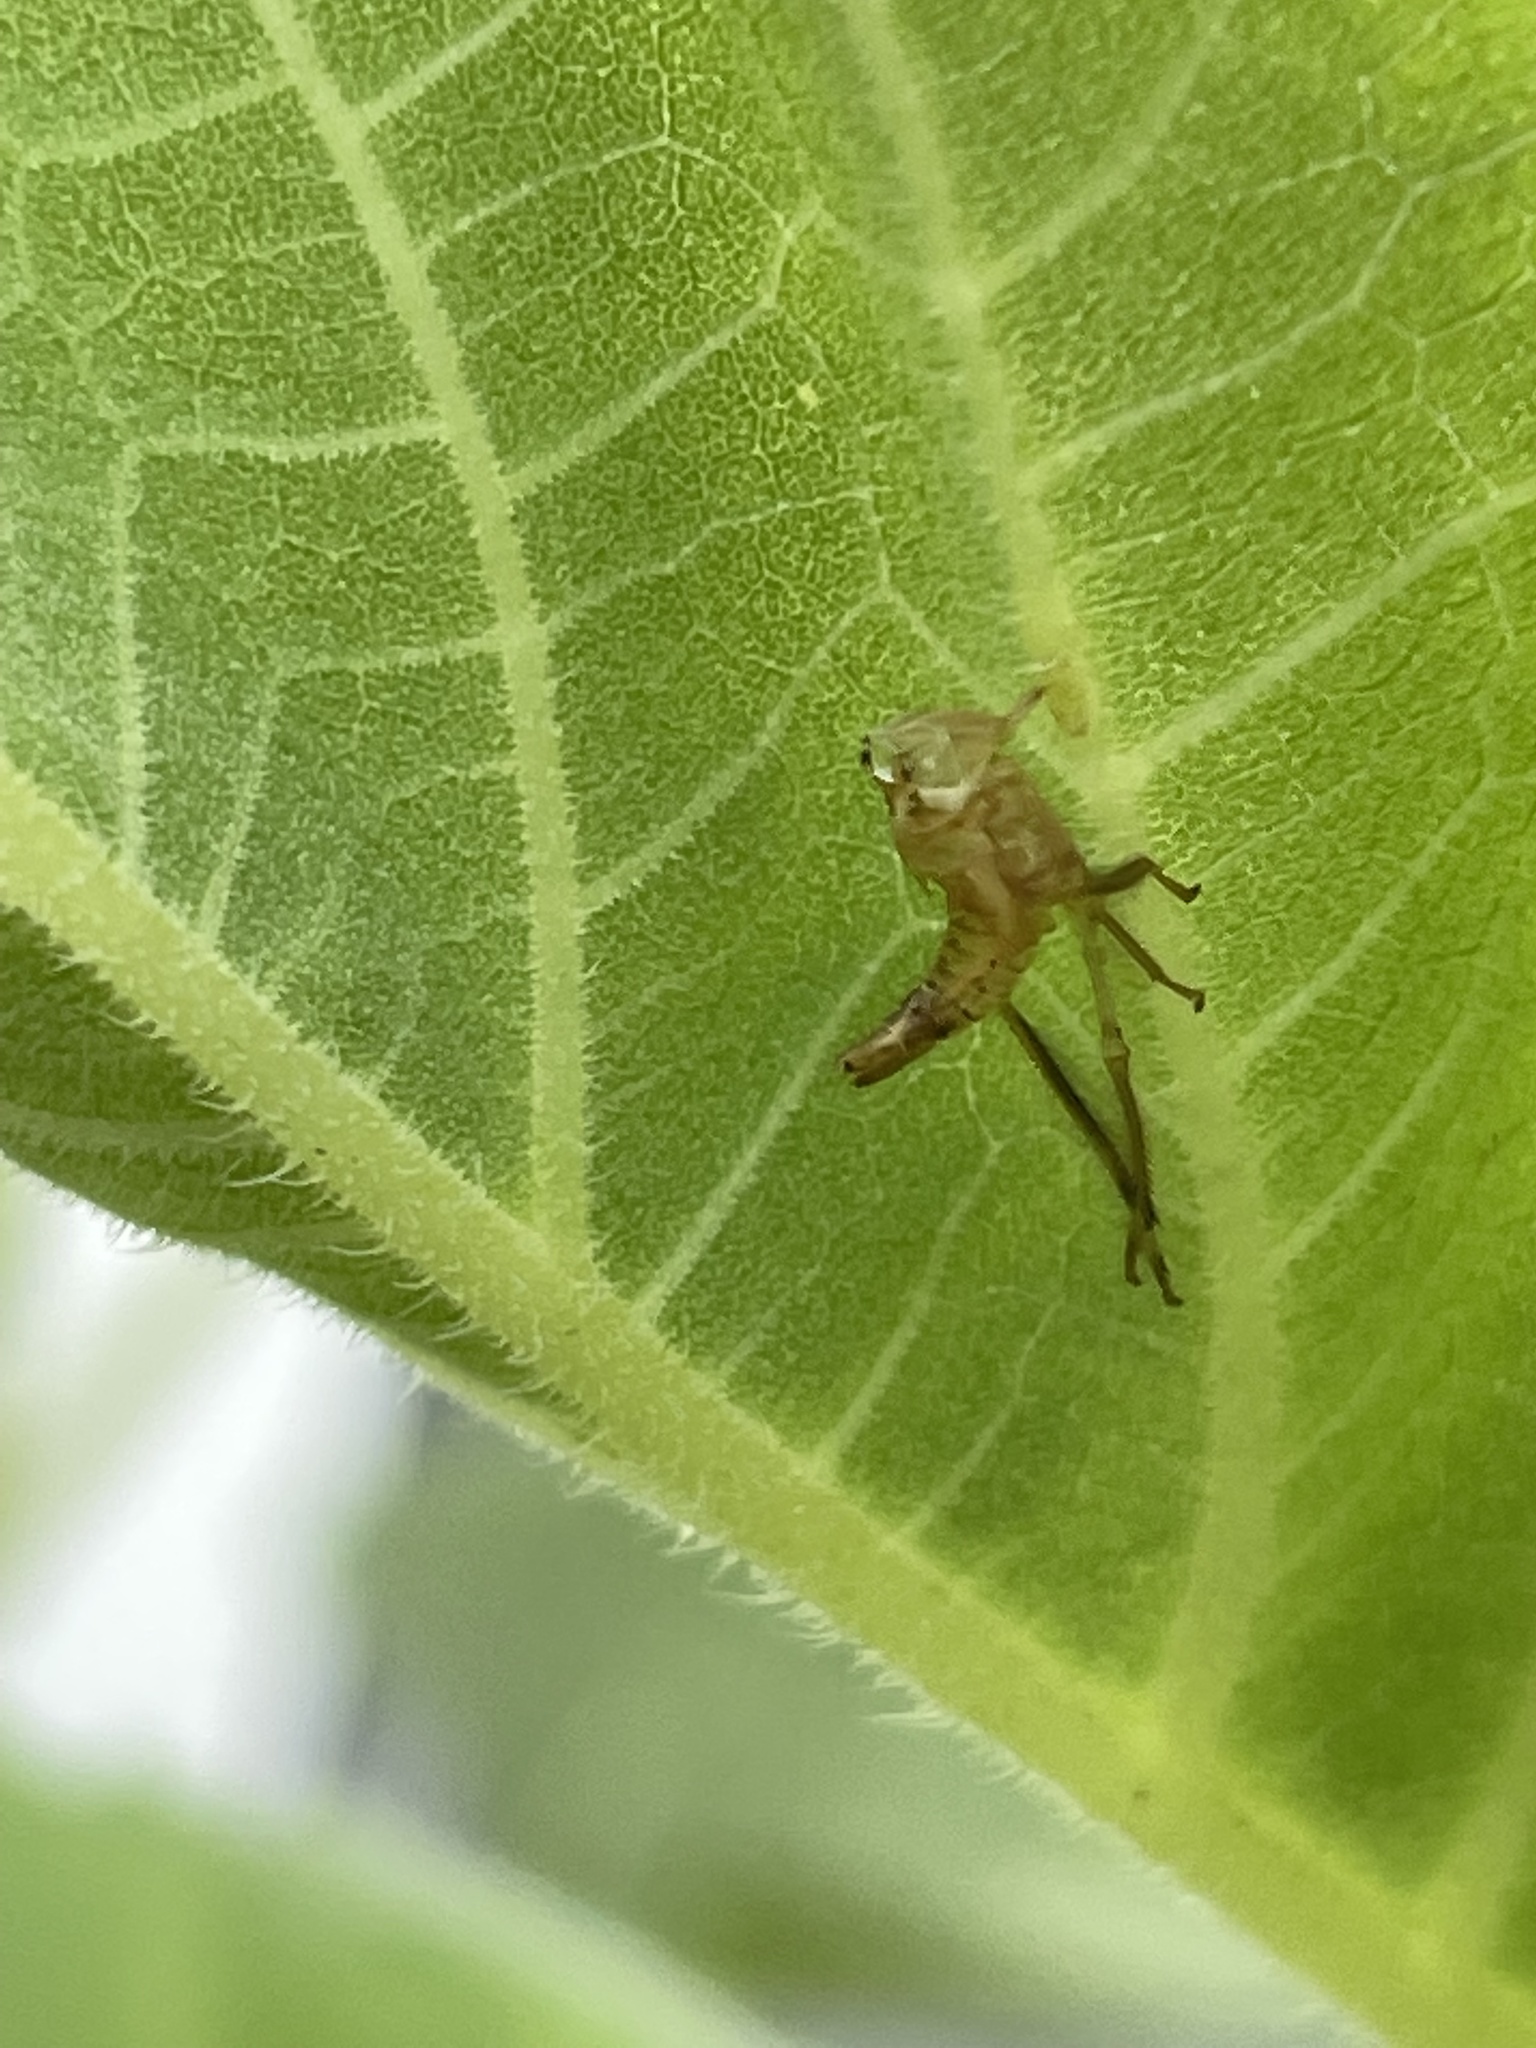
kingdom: Animalia
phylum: Arthropoda
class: Insecta
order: Hemiptera
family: Cicadellidae
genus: Jikradia
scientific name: Jikradia olitoria
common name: Coppery leafhopper
